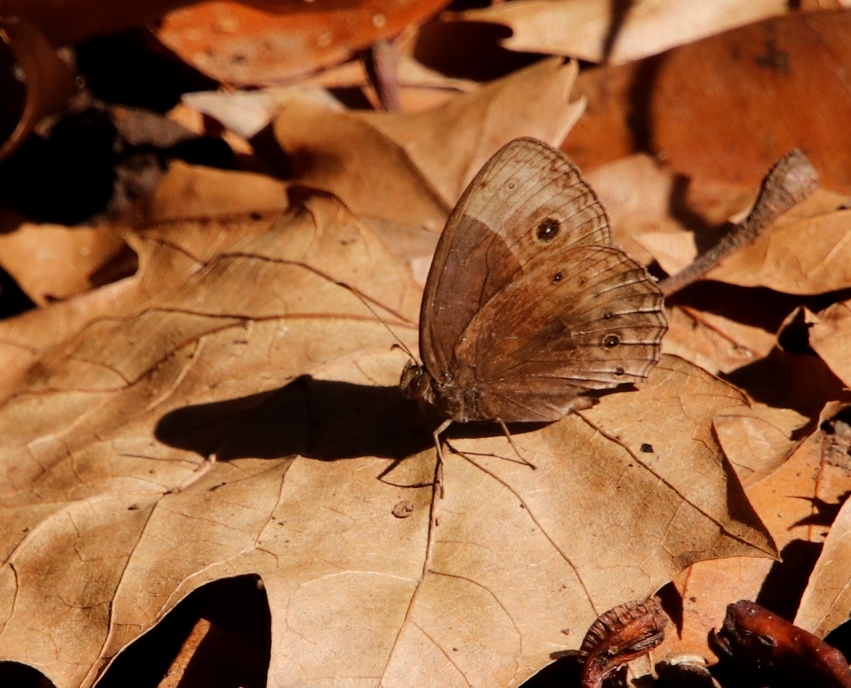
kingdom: Animalia
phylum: Arthropoda
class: Insecta
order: Lepidoptera
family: Nymphalidae
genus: Mycalesis
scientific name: Mycalesis rhacotis
